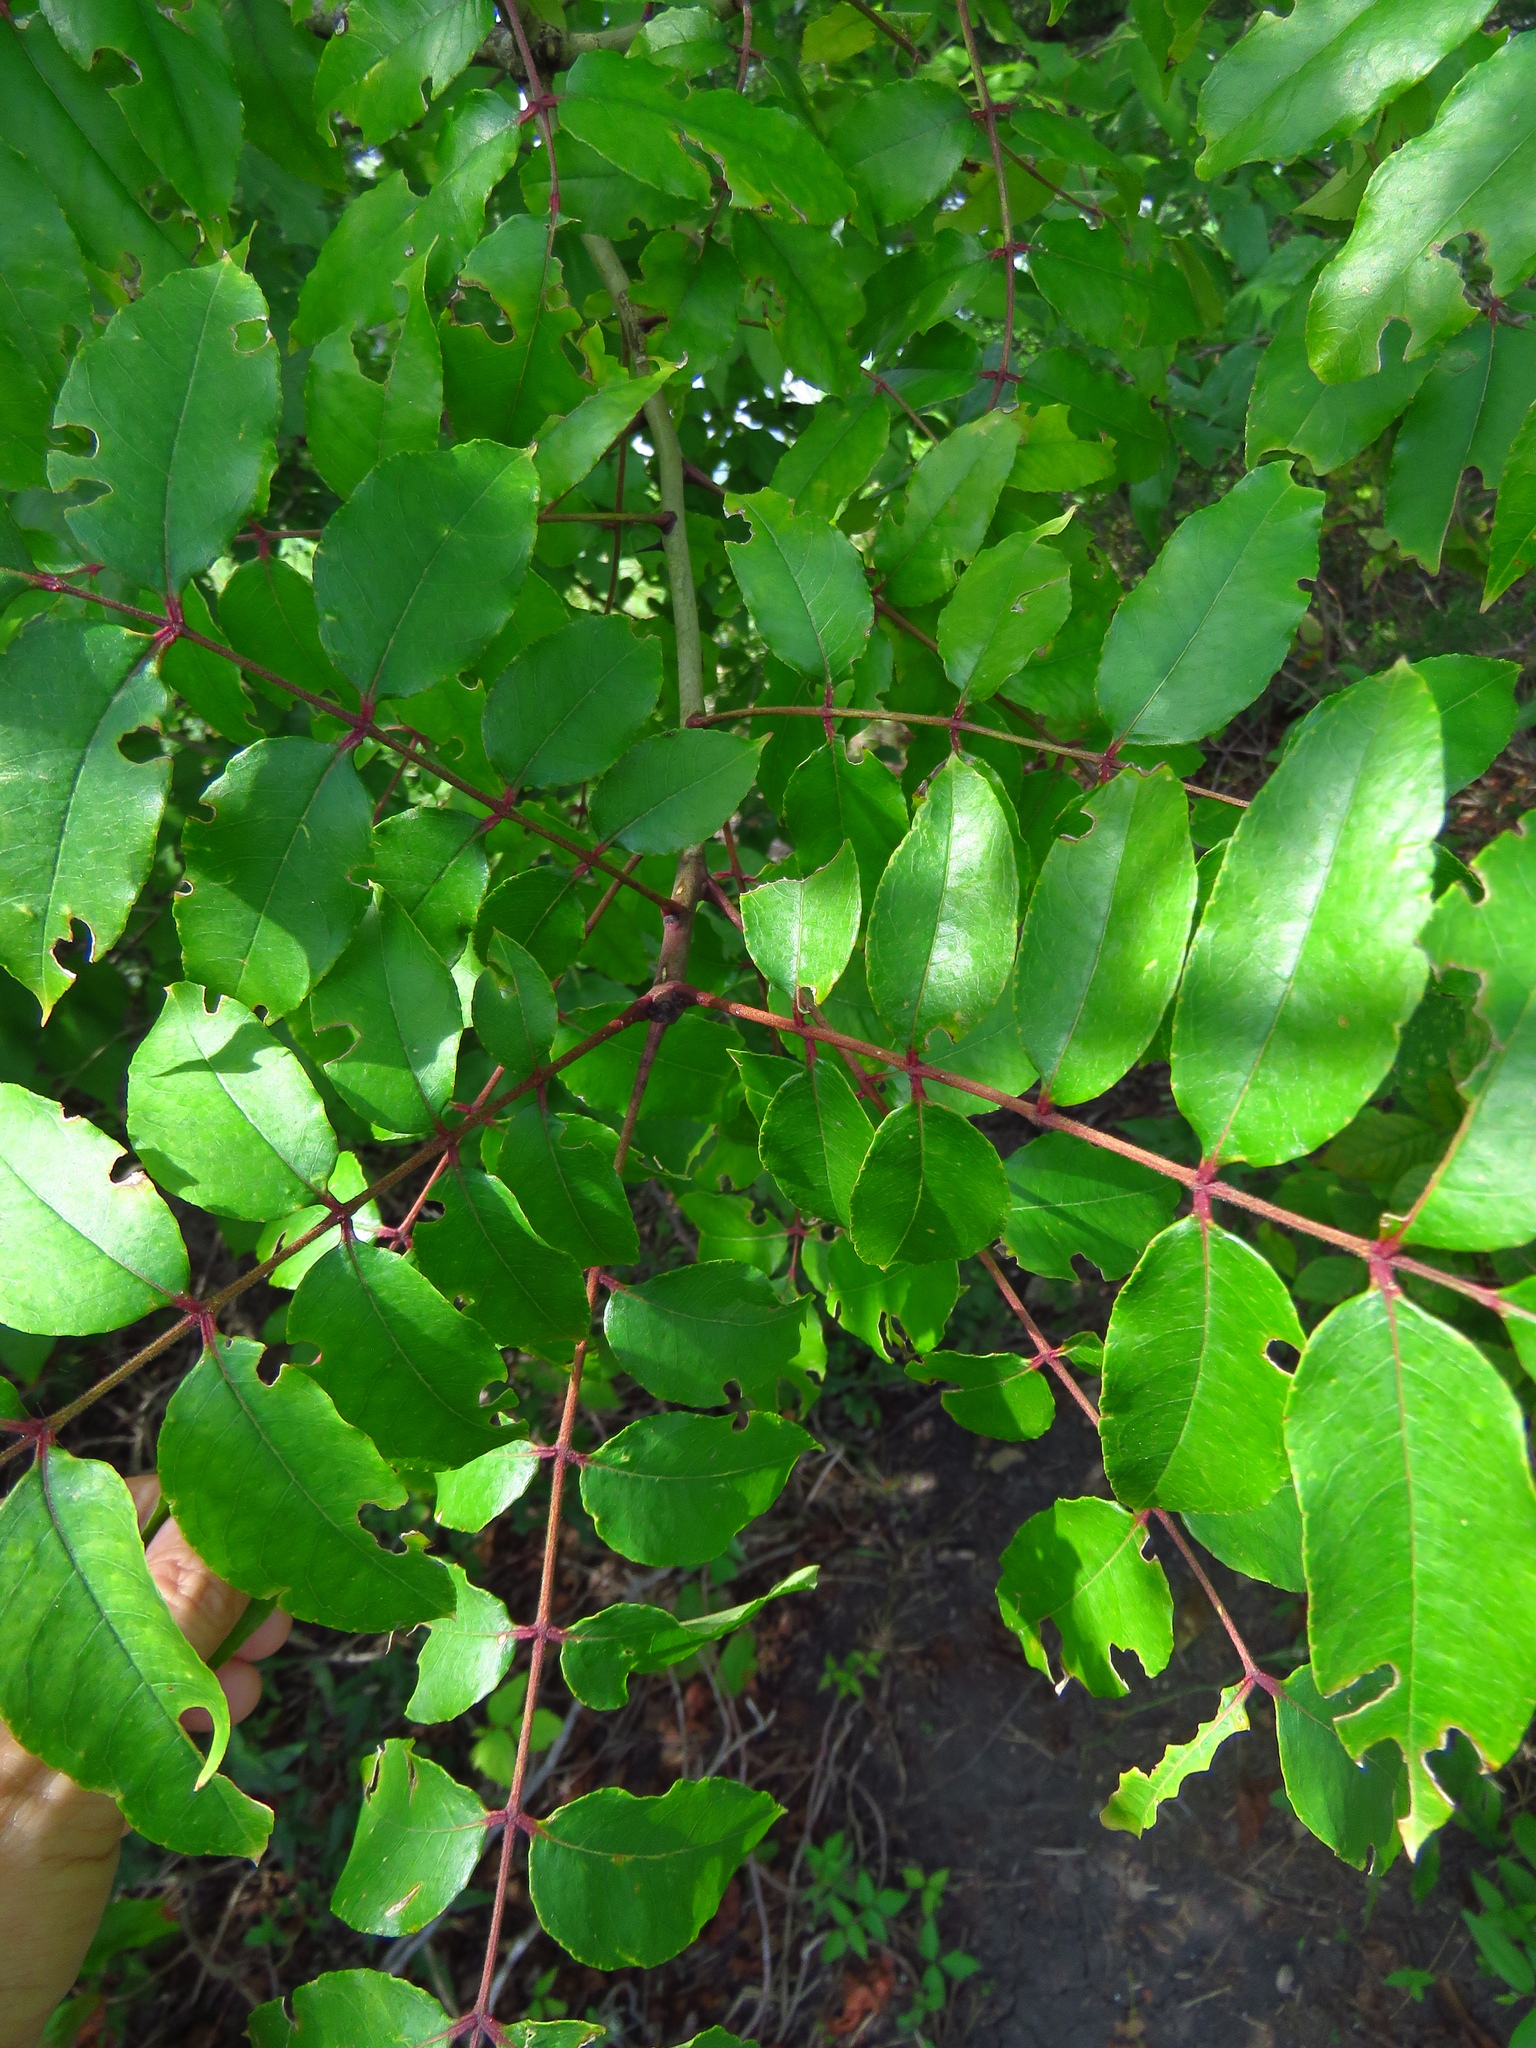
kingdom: Plantae
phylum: Tracheophyta
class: Magnoliopsida
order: Sapindales
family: Rutaceae
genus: Zanthoxylum
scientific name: Zanthoxylum clava-herculis
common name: Hercules'-club
